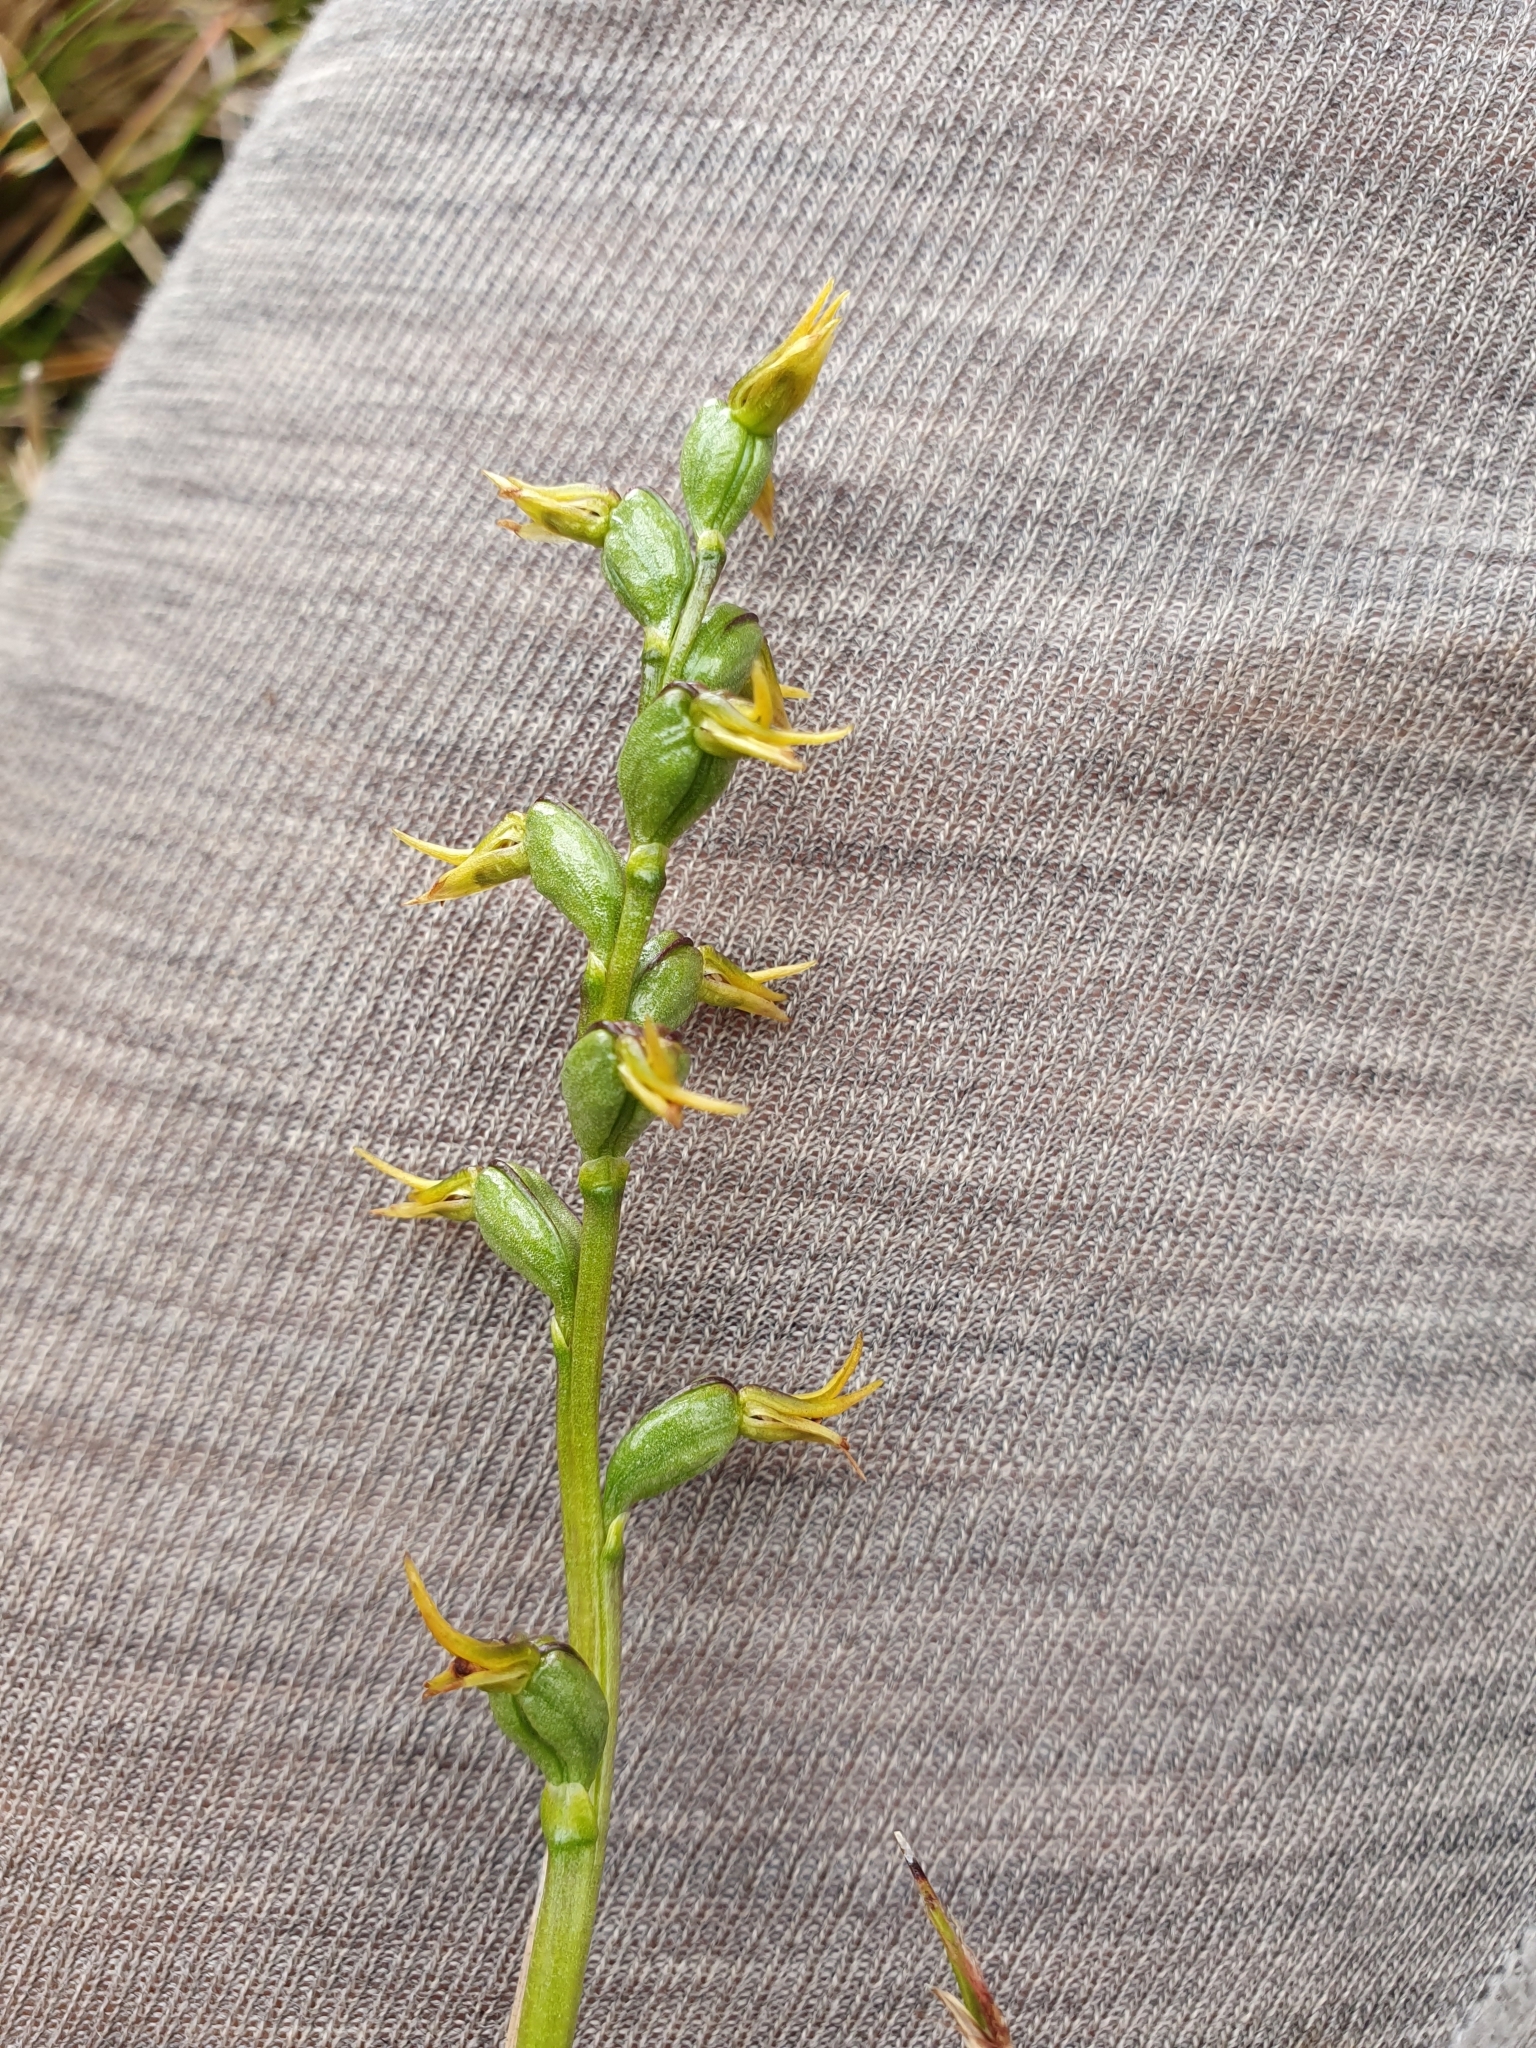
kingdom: Plantae
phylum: Tracheophyta
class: Liliopsida
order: Asparagales
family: Orchidaceae
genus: Prasophyllum
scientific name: Prasophyllum colensoi
